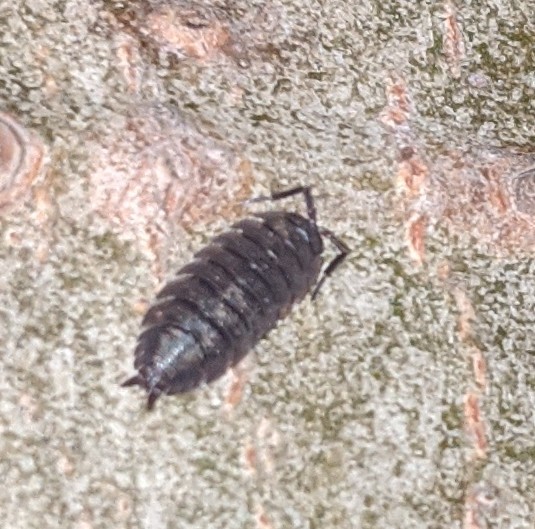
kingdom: Animalia
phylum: Arthropoda
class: Malacostraca
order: Isopoda
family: Porcellionidae
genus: Porcellio
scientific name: Porcellio scaber
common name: Common rough woodlouse
